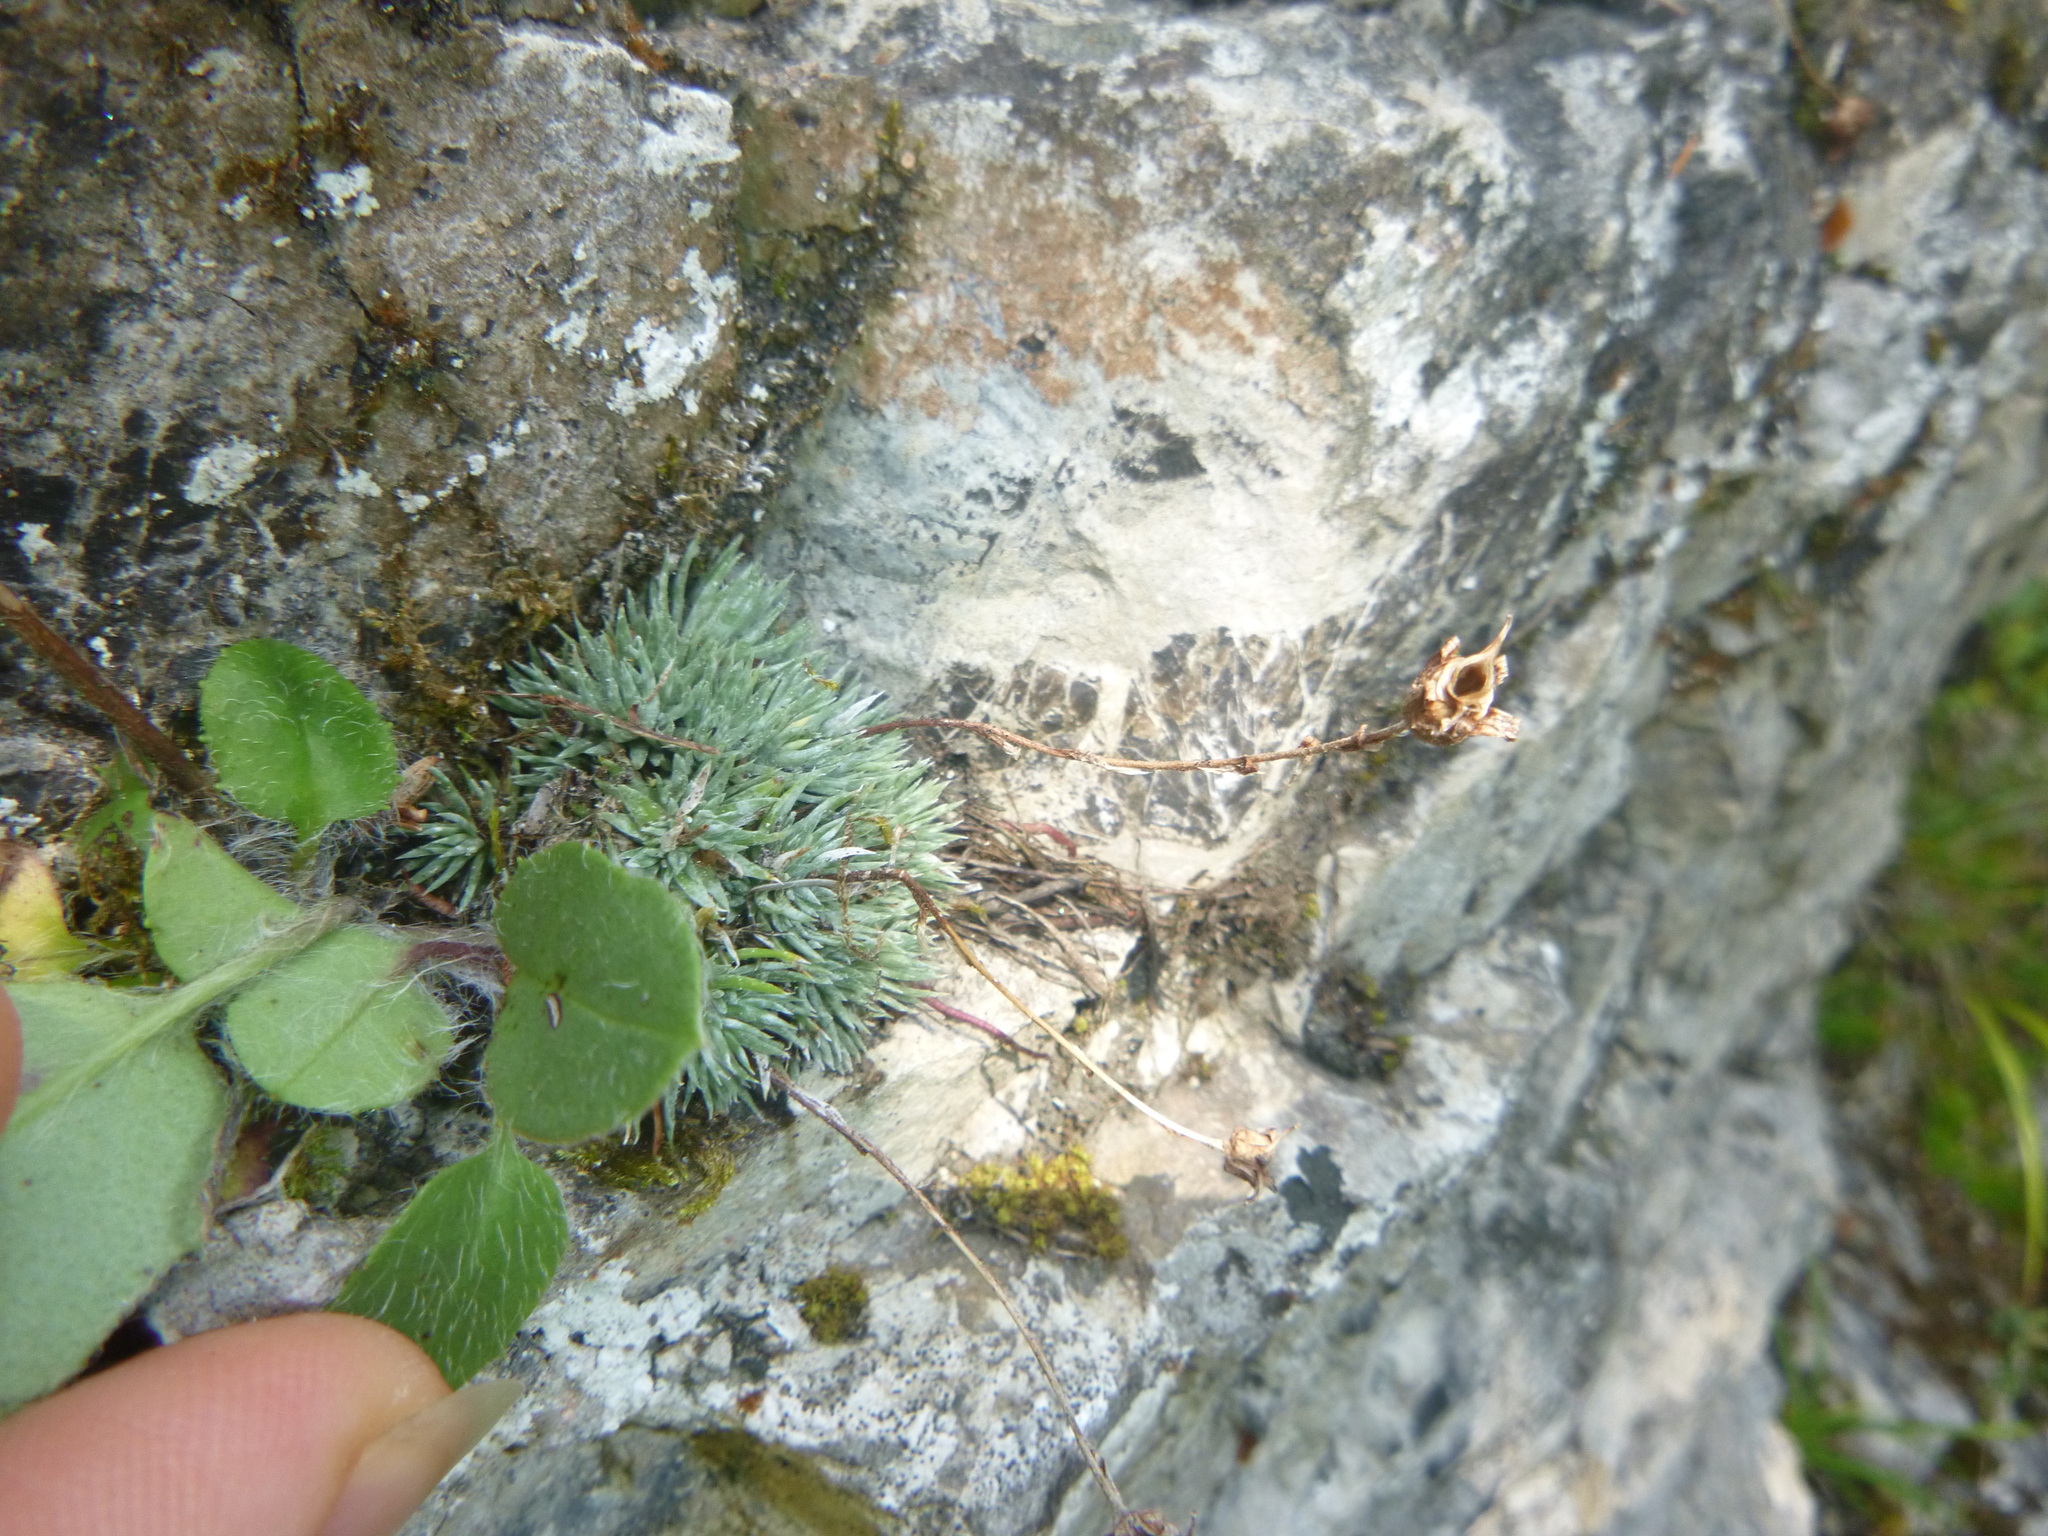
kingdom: Plantae
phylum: Tracheophyta
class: Magnoliopsida
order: Saxifragales
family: Saxifragaceae
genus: Saxifraga
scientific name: Saxifraga burseriana
